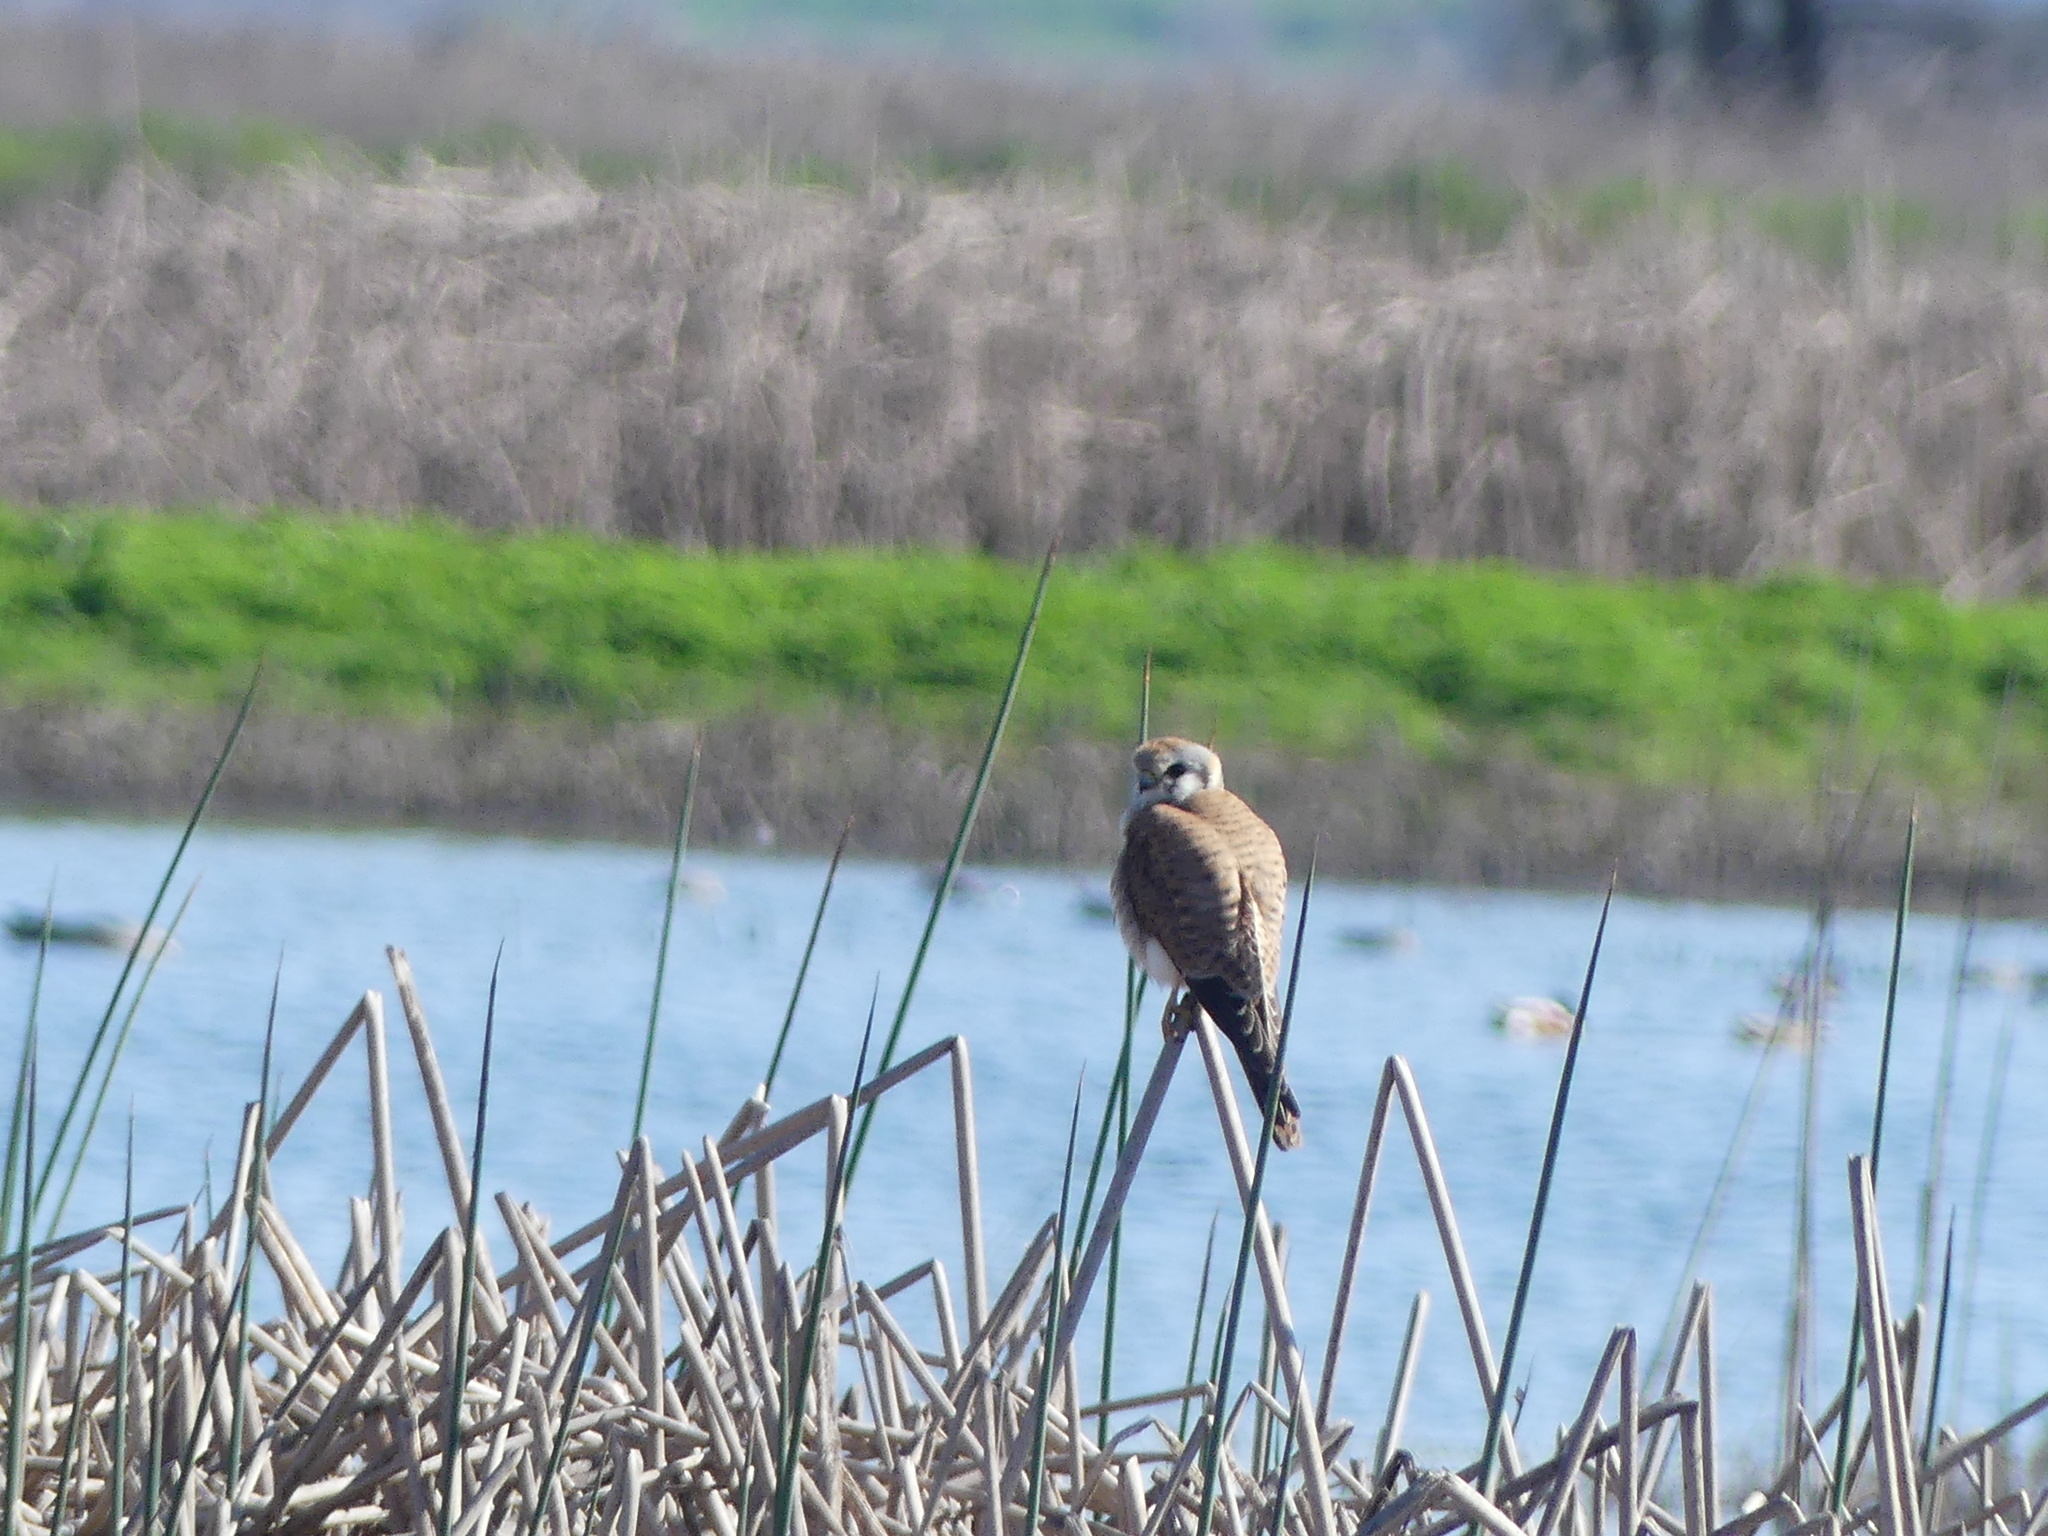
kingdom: Animalia
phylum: Chordata
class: Aves
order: Falconiformes
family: Falconidae
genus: Falco
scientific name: Falco sparverius
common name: American kestrel
